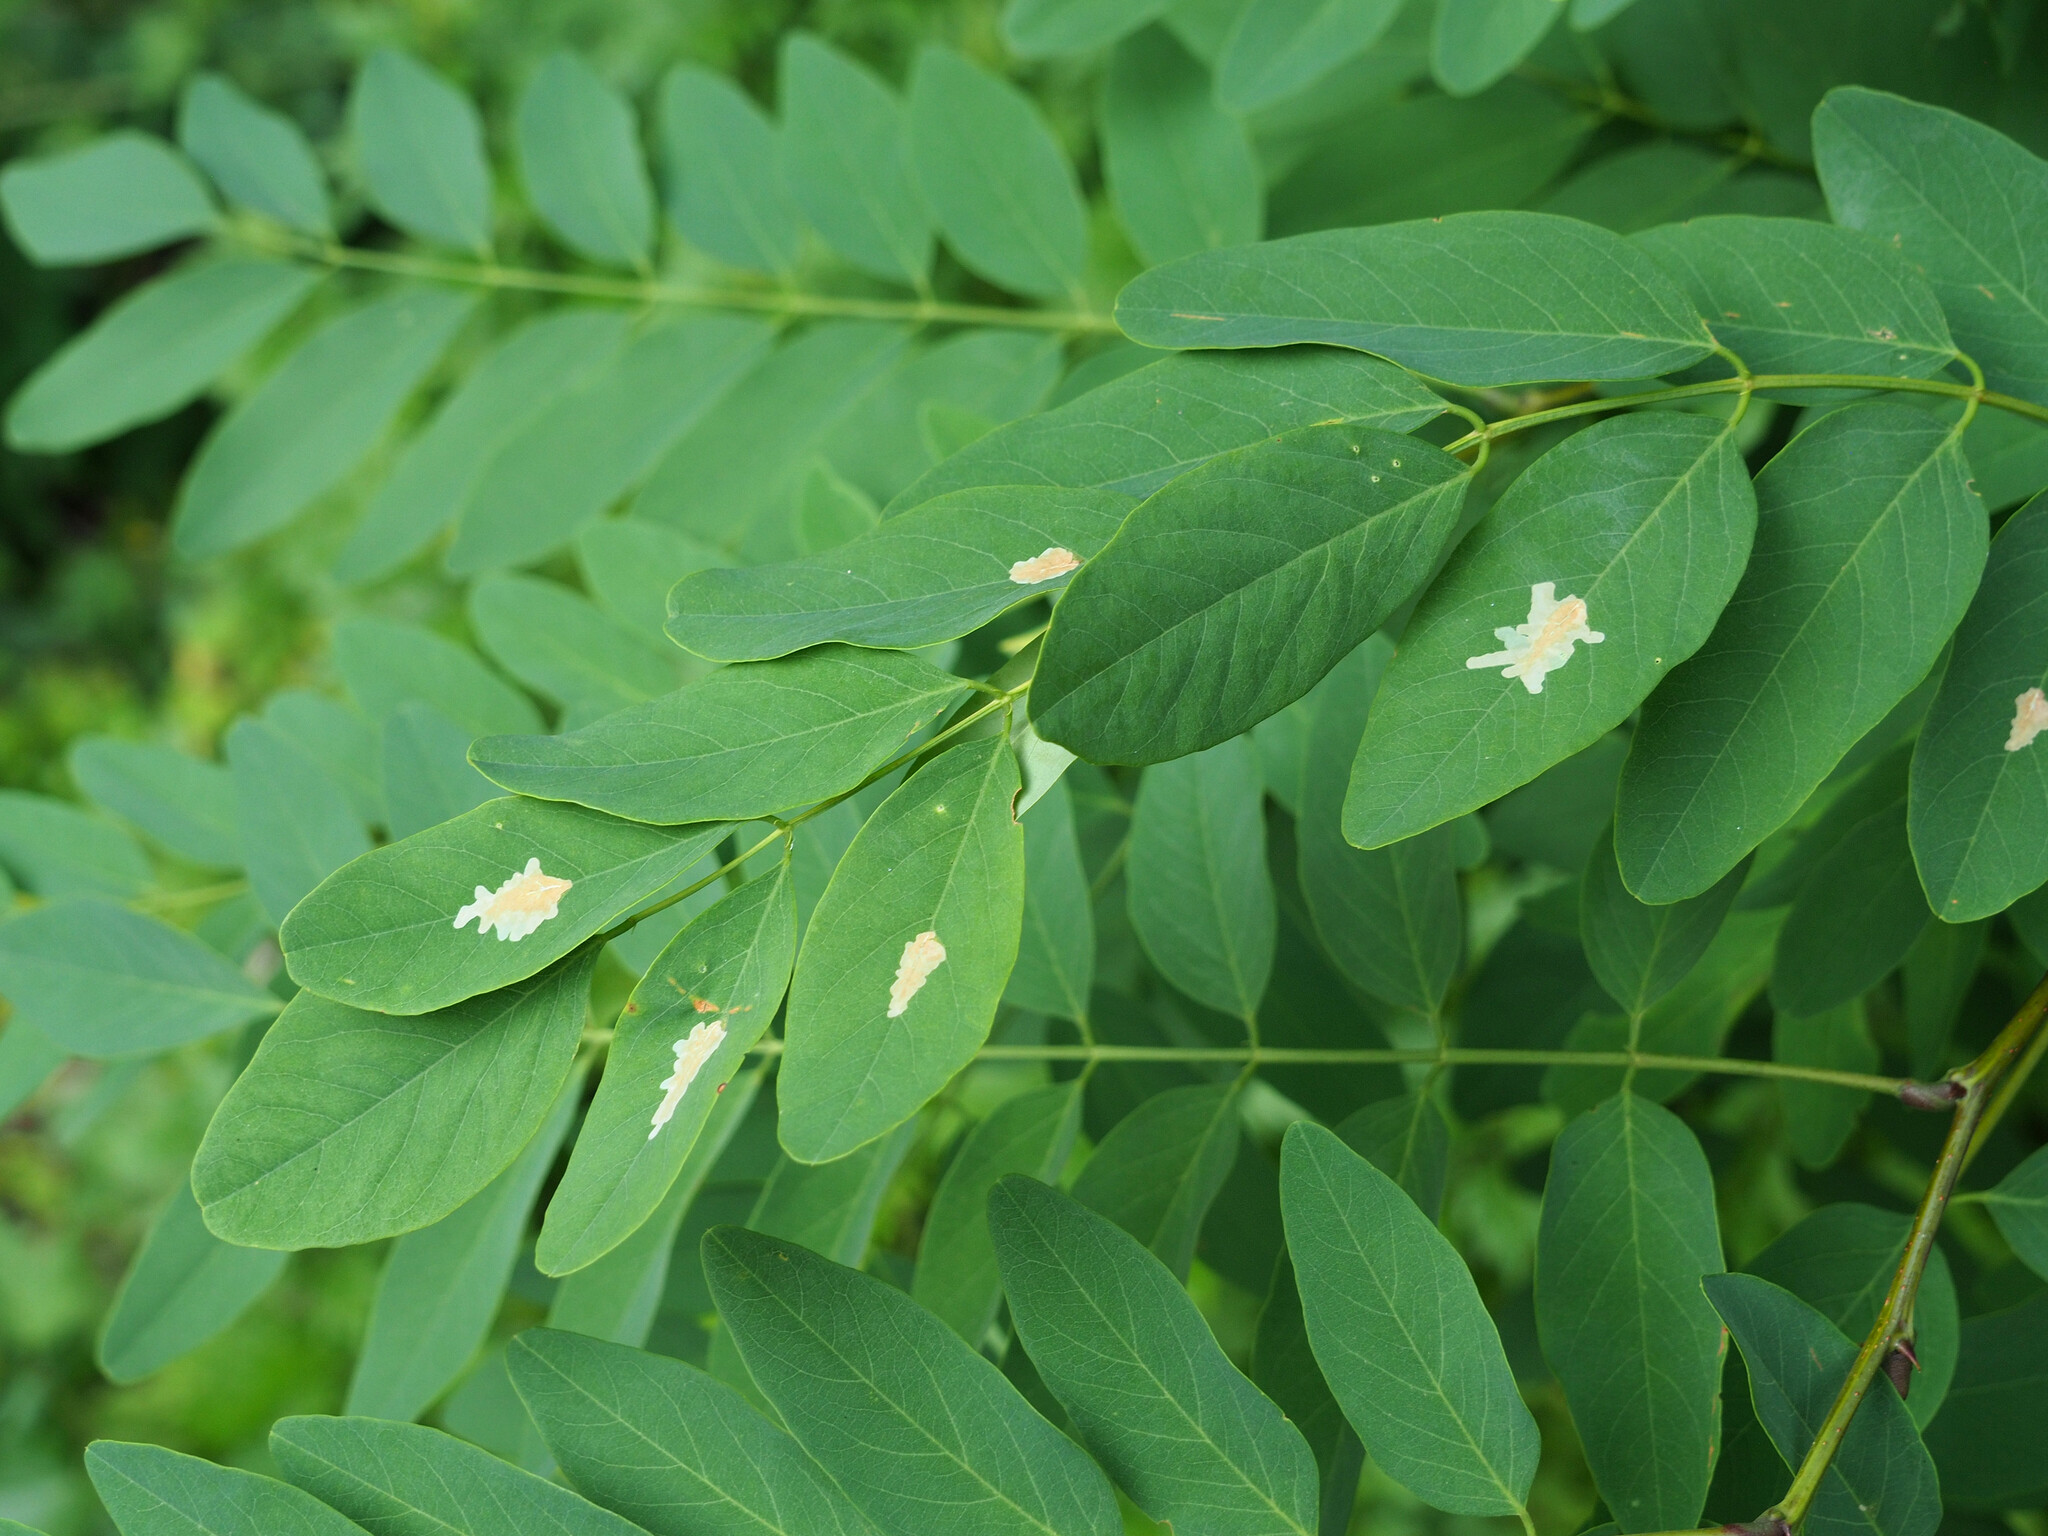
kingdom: Animalia
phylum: Arthropoda
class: Insecta
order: Lepidoptera
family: Gracillariidae
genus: Parectopa
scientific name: Parectopa robiniella
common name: Locust digitate leafminer
